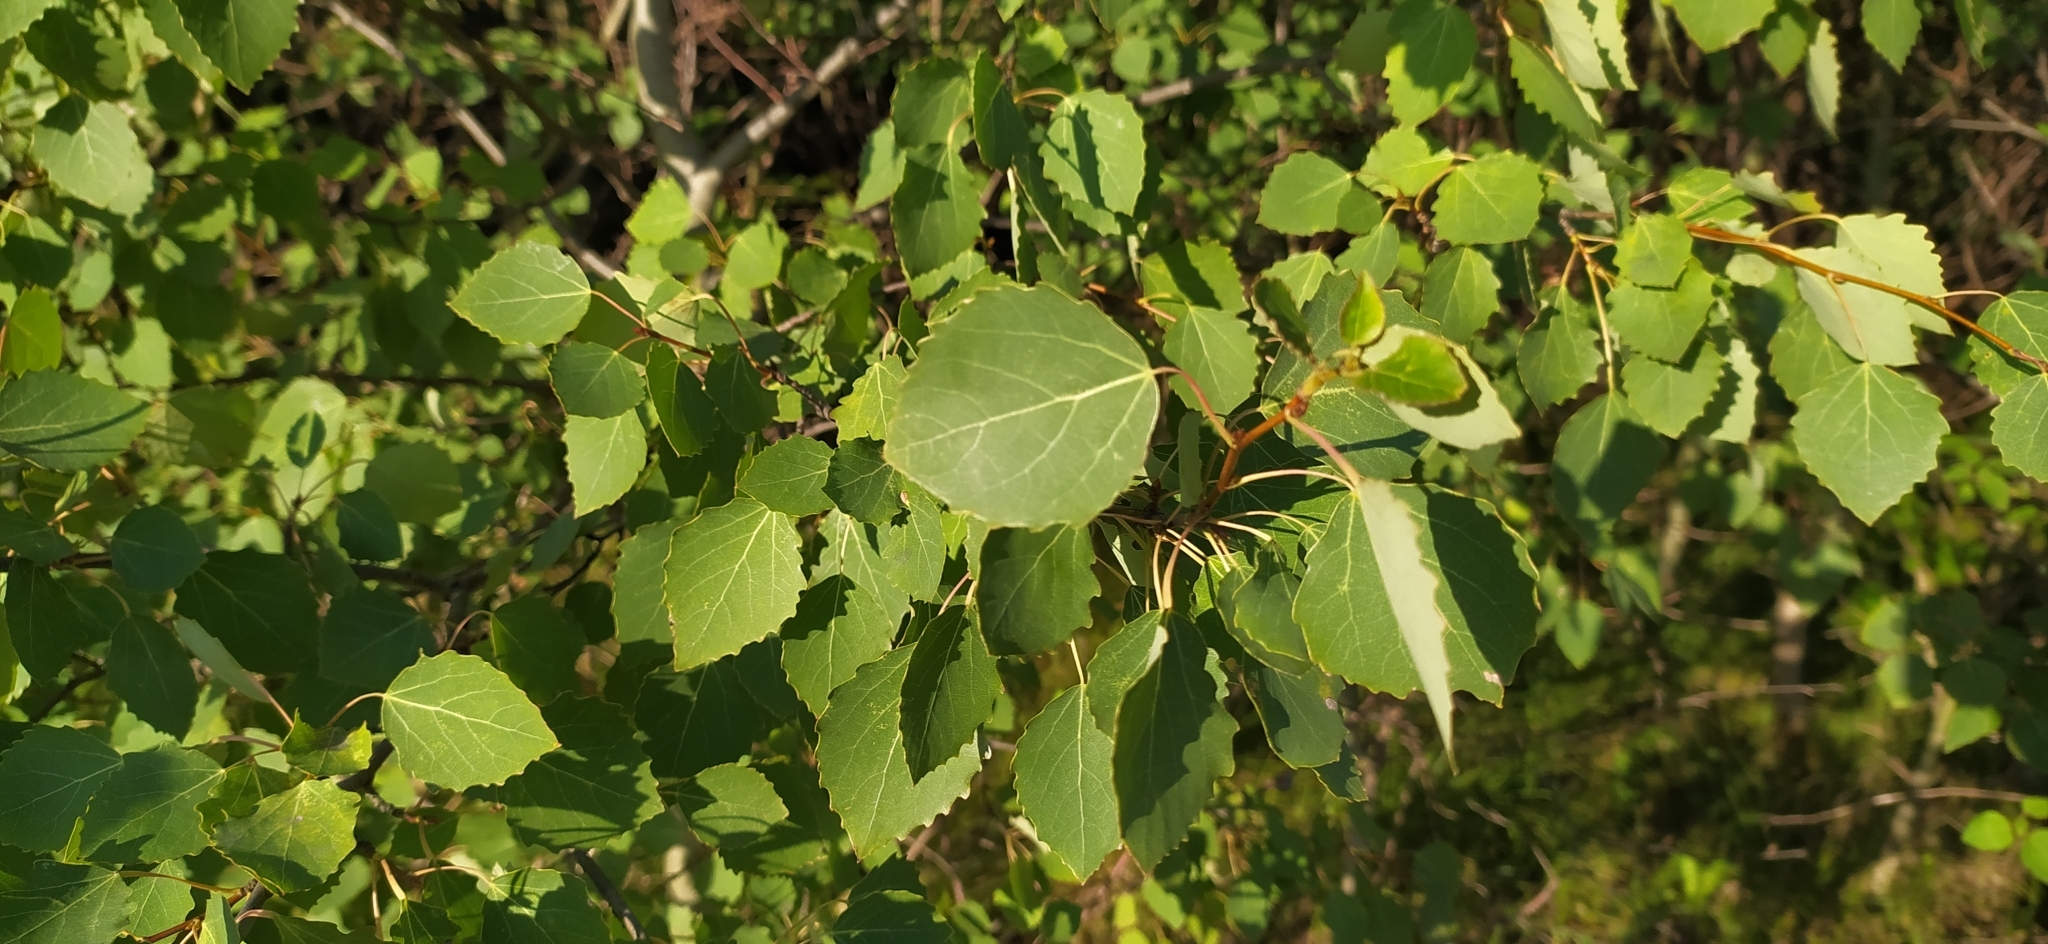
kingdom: Plantae
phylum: Tracheophyta
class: Magnoliopsida
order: Malpighiales
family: Salicaceae
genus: Populus
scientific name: Populus tremula
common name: European aspen
